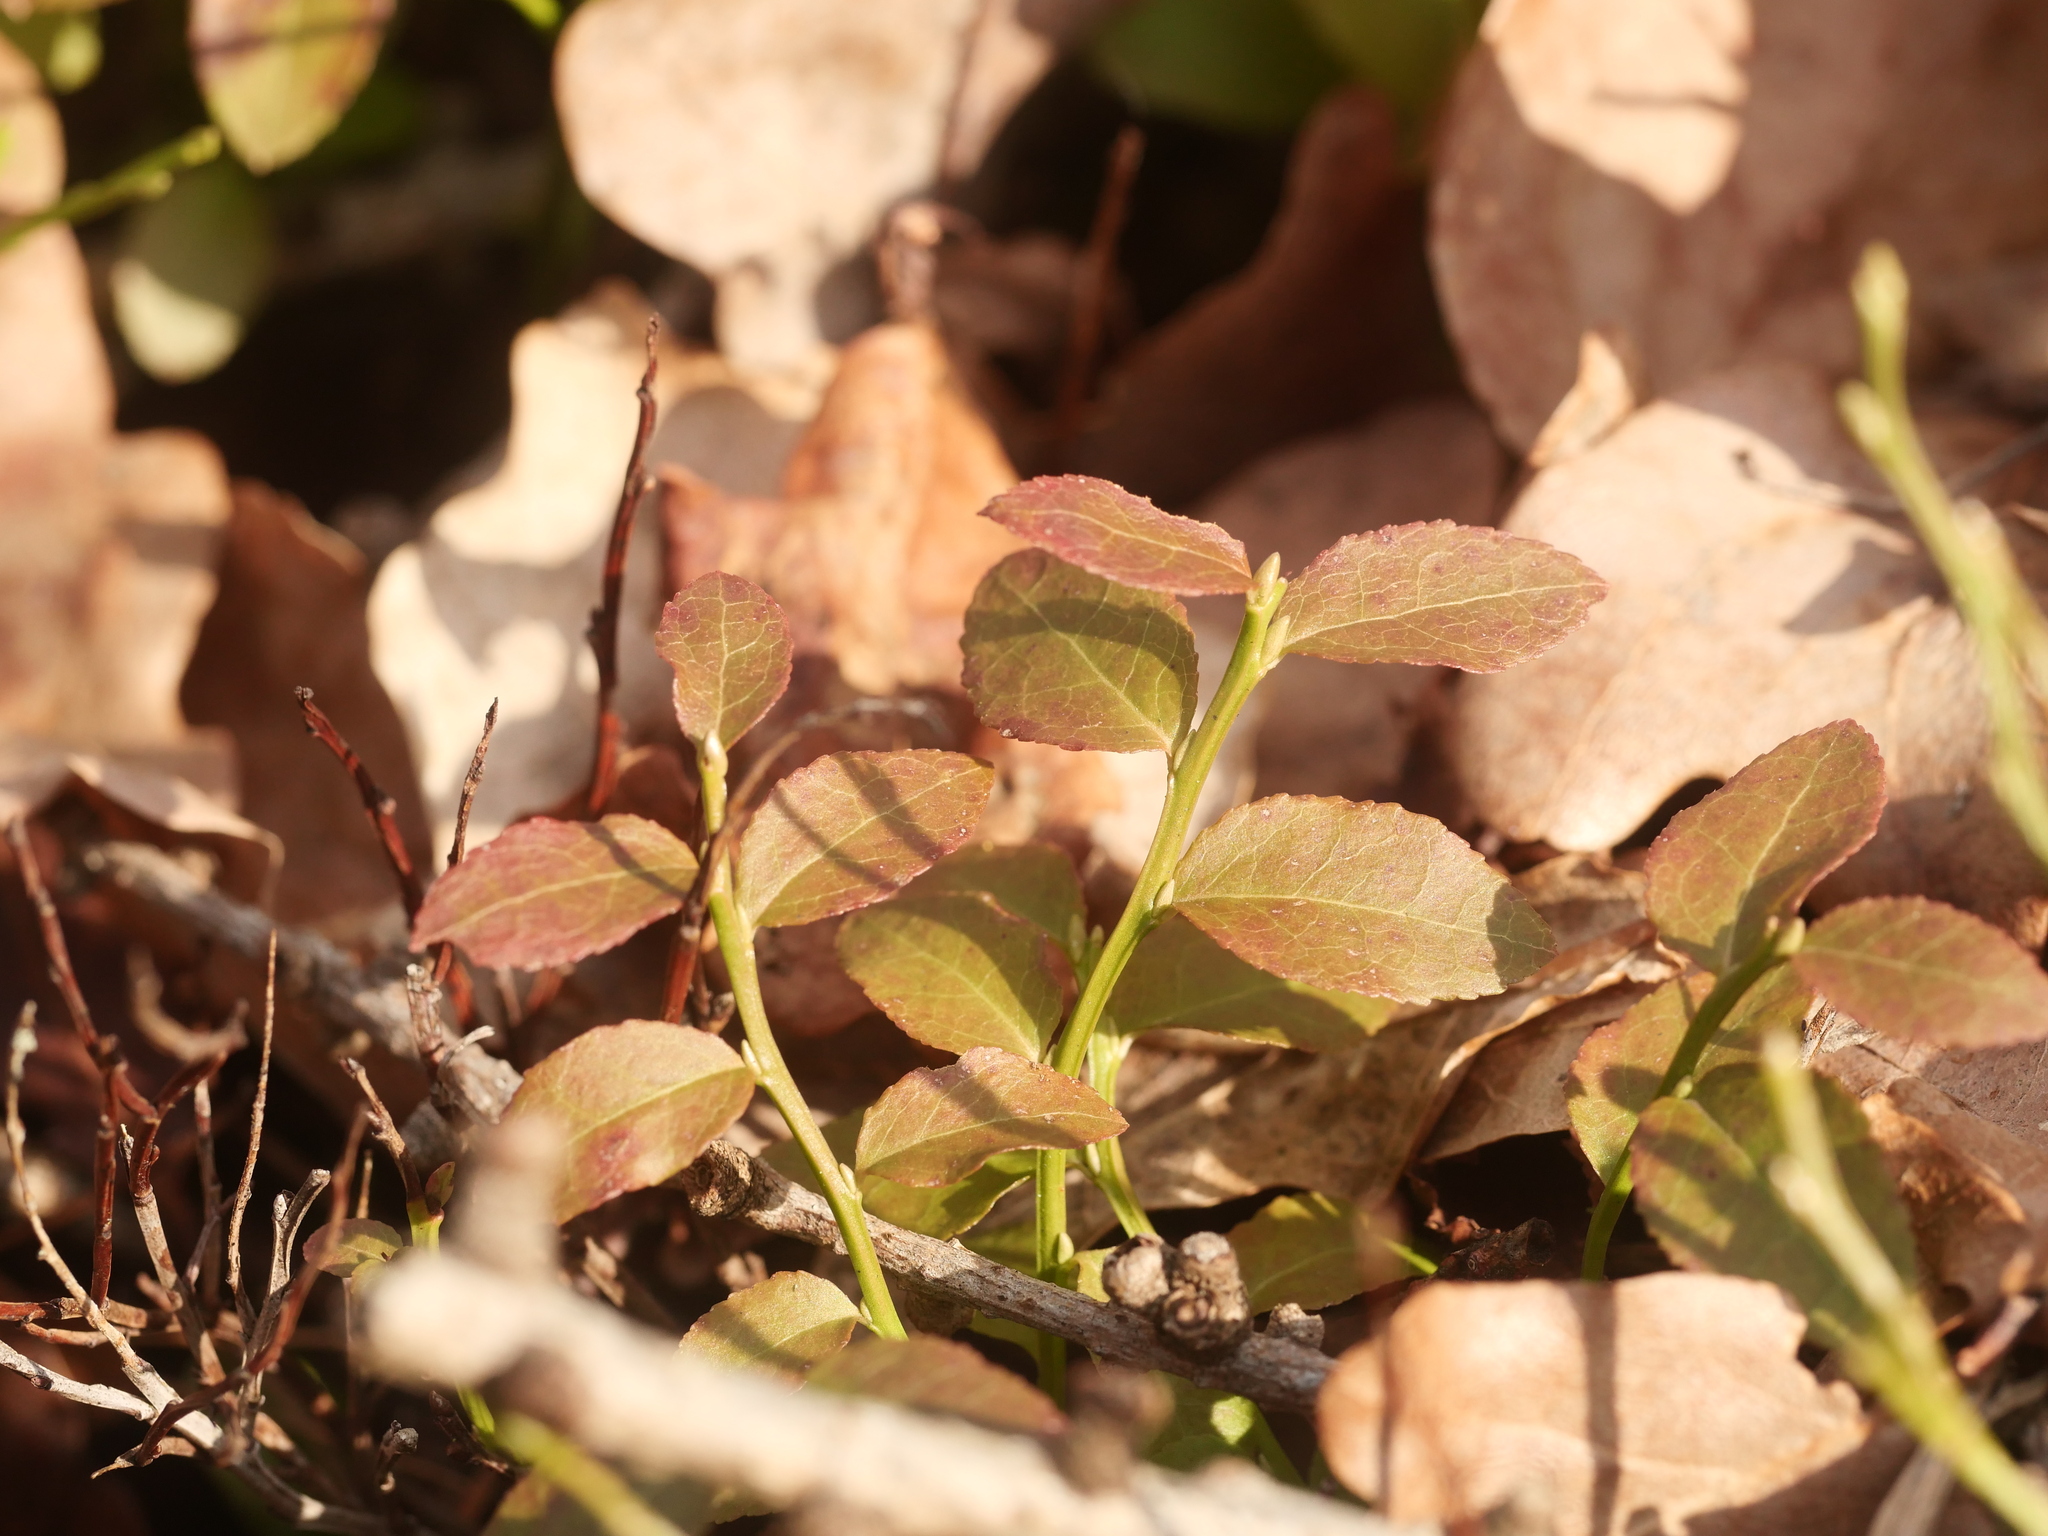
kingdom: Plantae
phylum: Tracheophyta
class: Magnoliopsida
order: Ericales
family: Ericaceae
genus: Vaccinium
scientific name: Vaccinium myrtillus
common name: Bilberry
